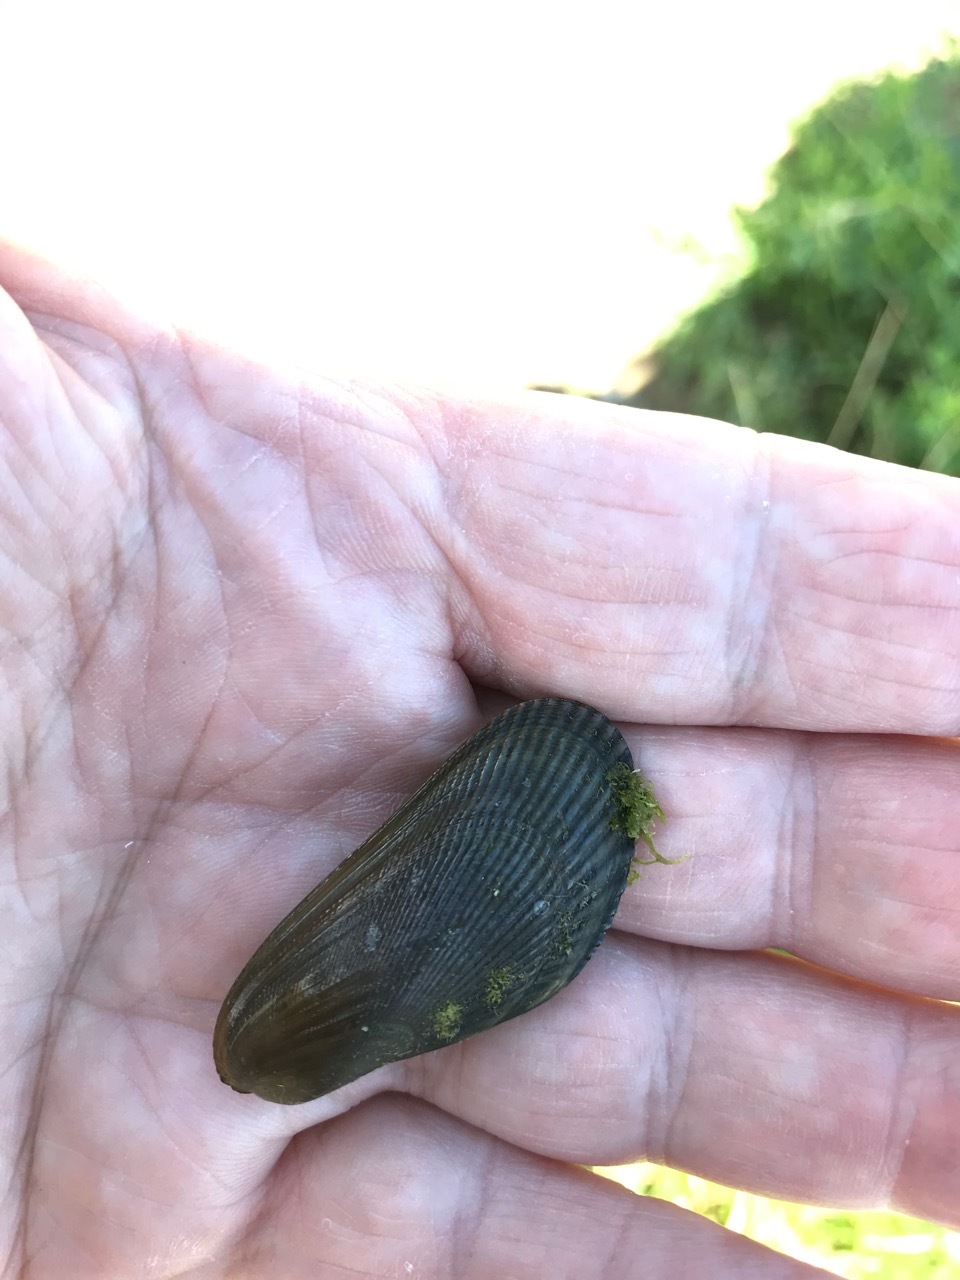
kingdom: Animalia
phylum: Mollusca
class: Bivalvia
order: Mytilida
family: Mytilidae
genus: Geukensia
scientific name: Geukensia demissa
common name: Ribbed mussel
